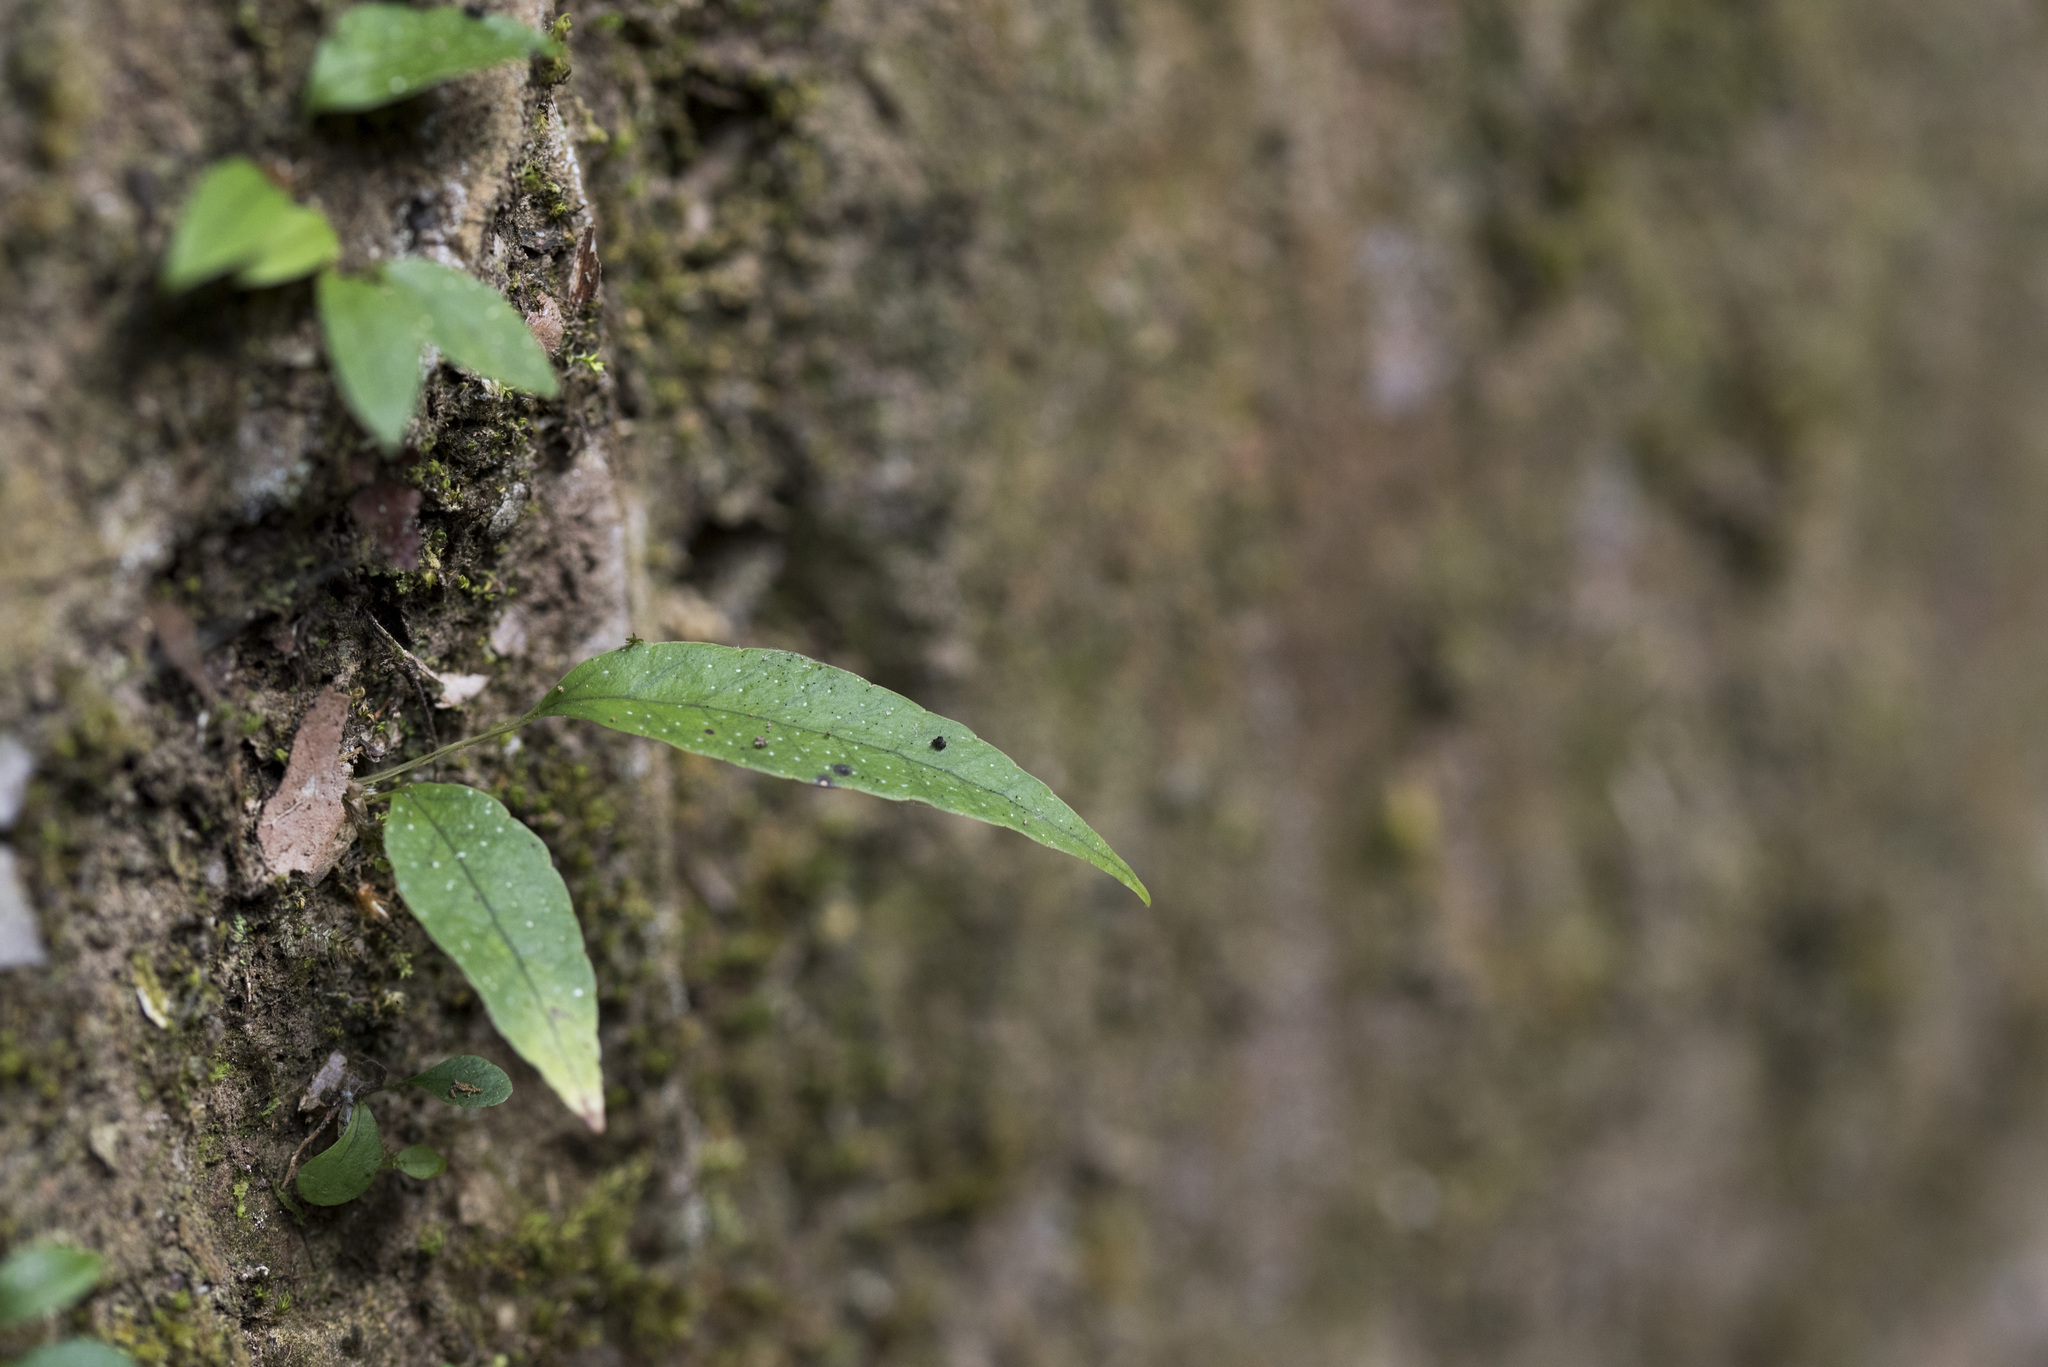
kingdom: Plantae
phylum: Tracheophyta
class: Polypodiopsida
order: Polypodiales
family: Polypodiaceae
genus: Selliguea
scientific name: Selliguea hastata
